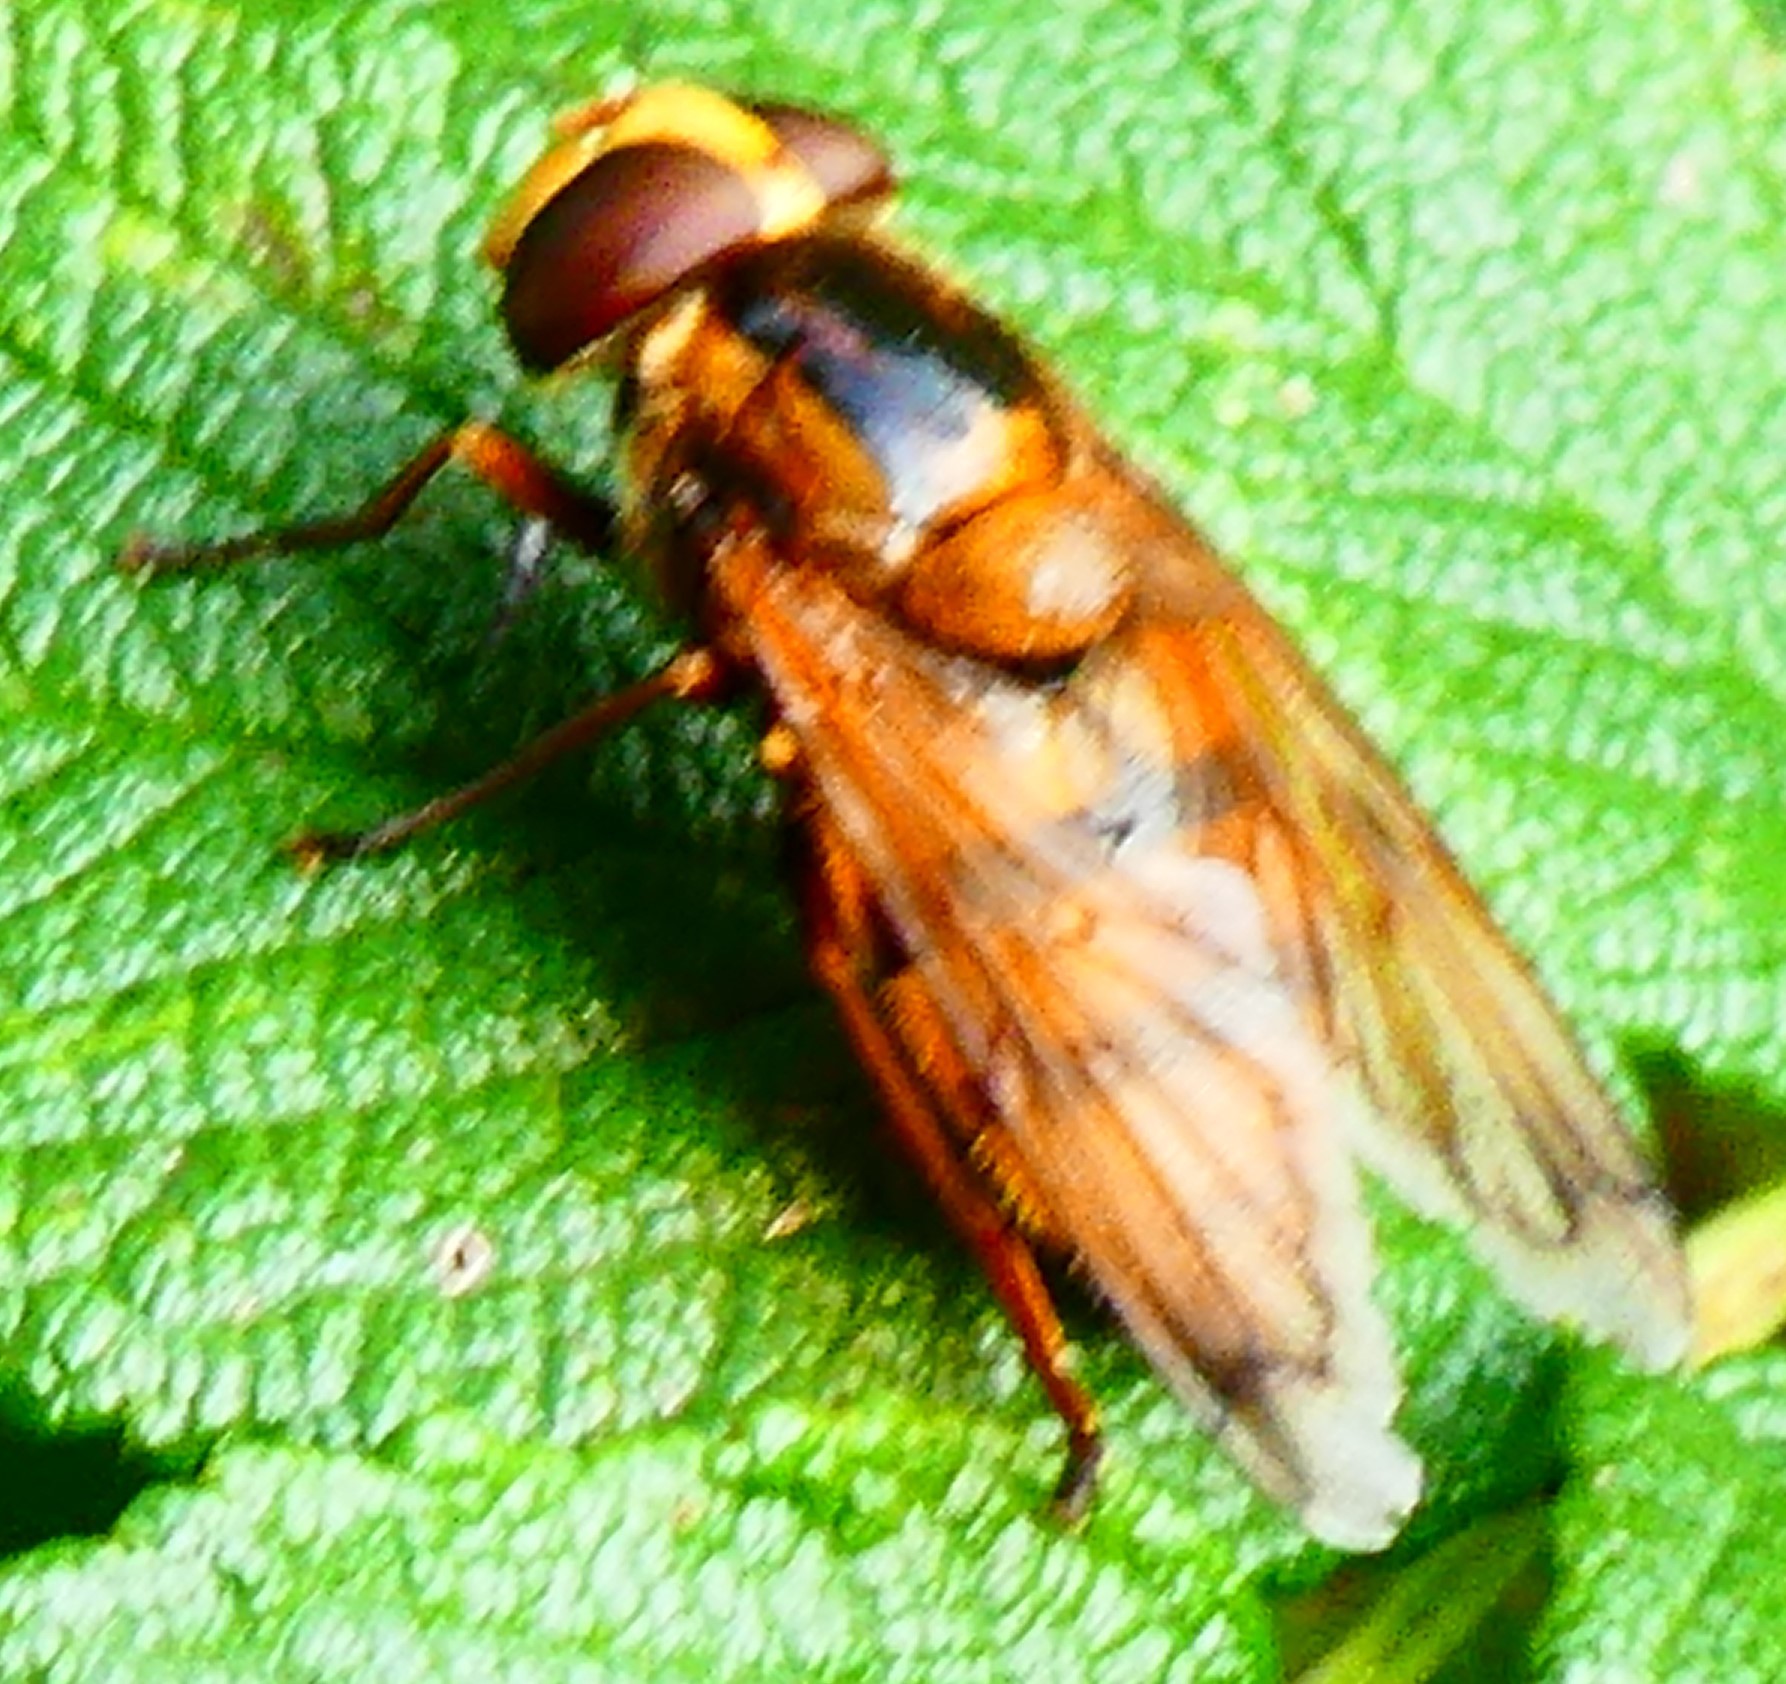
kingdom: Animalia
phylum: Arthropoda
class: Insecta
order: Diptera
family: Syrphidae
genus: Volucella
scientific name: Volucella inanis
